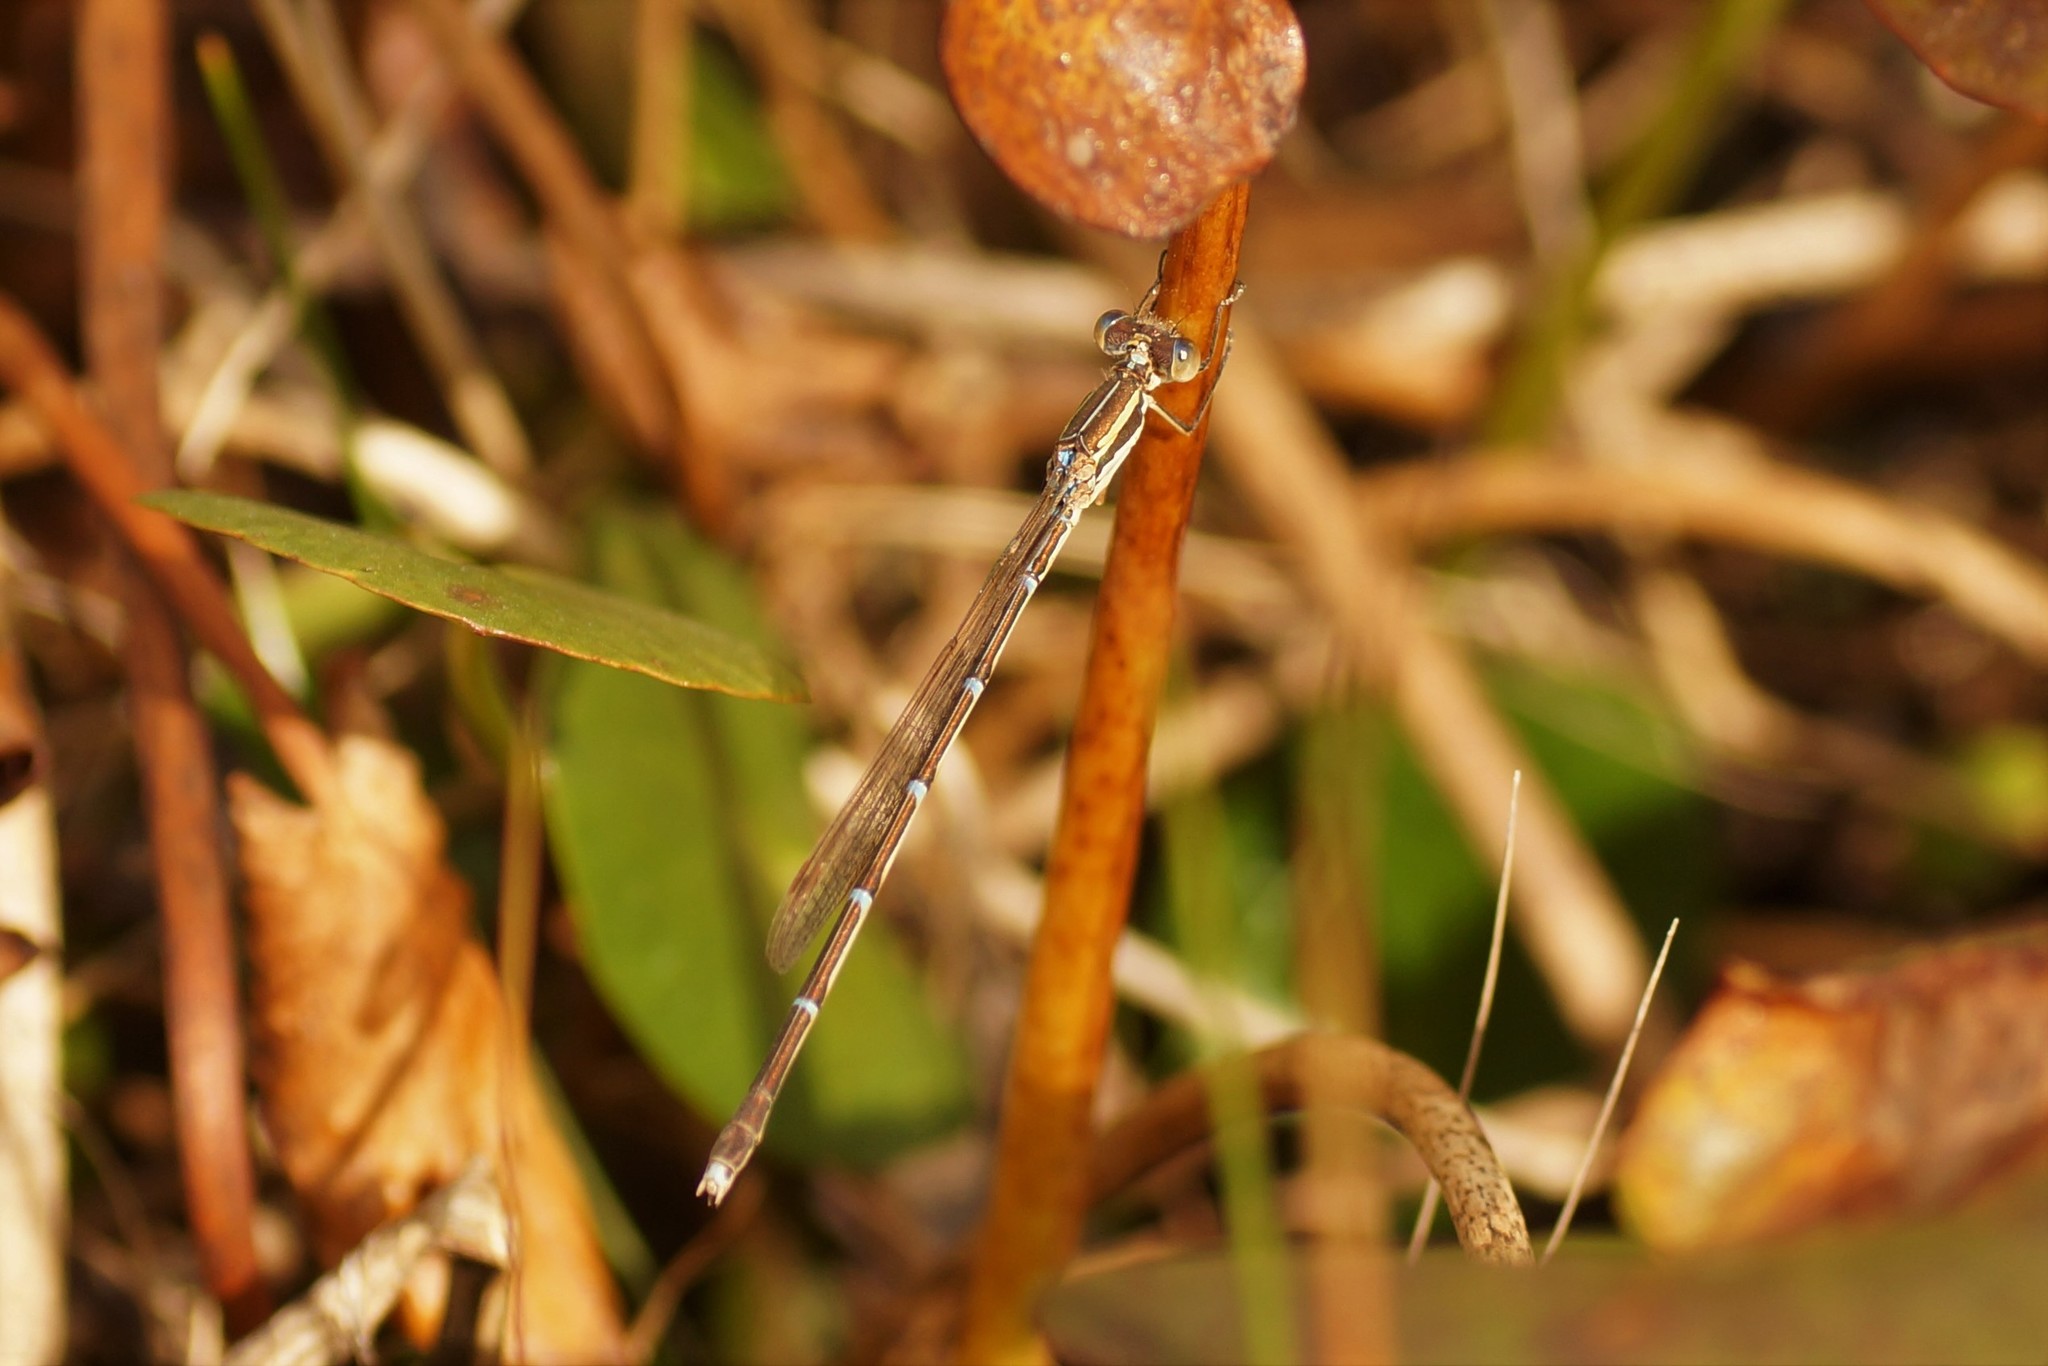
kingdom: Animalia
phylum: Arthropoda
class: Insecta
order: Odonata
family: Lestidae
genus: Austrolestes
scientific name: Austrolestes analis
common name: Slender ringtail
